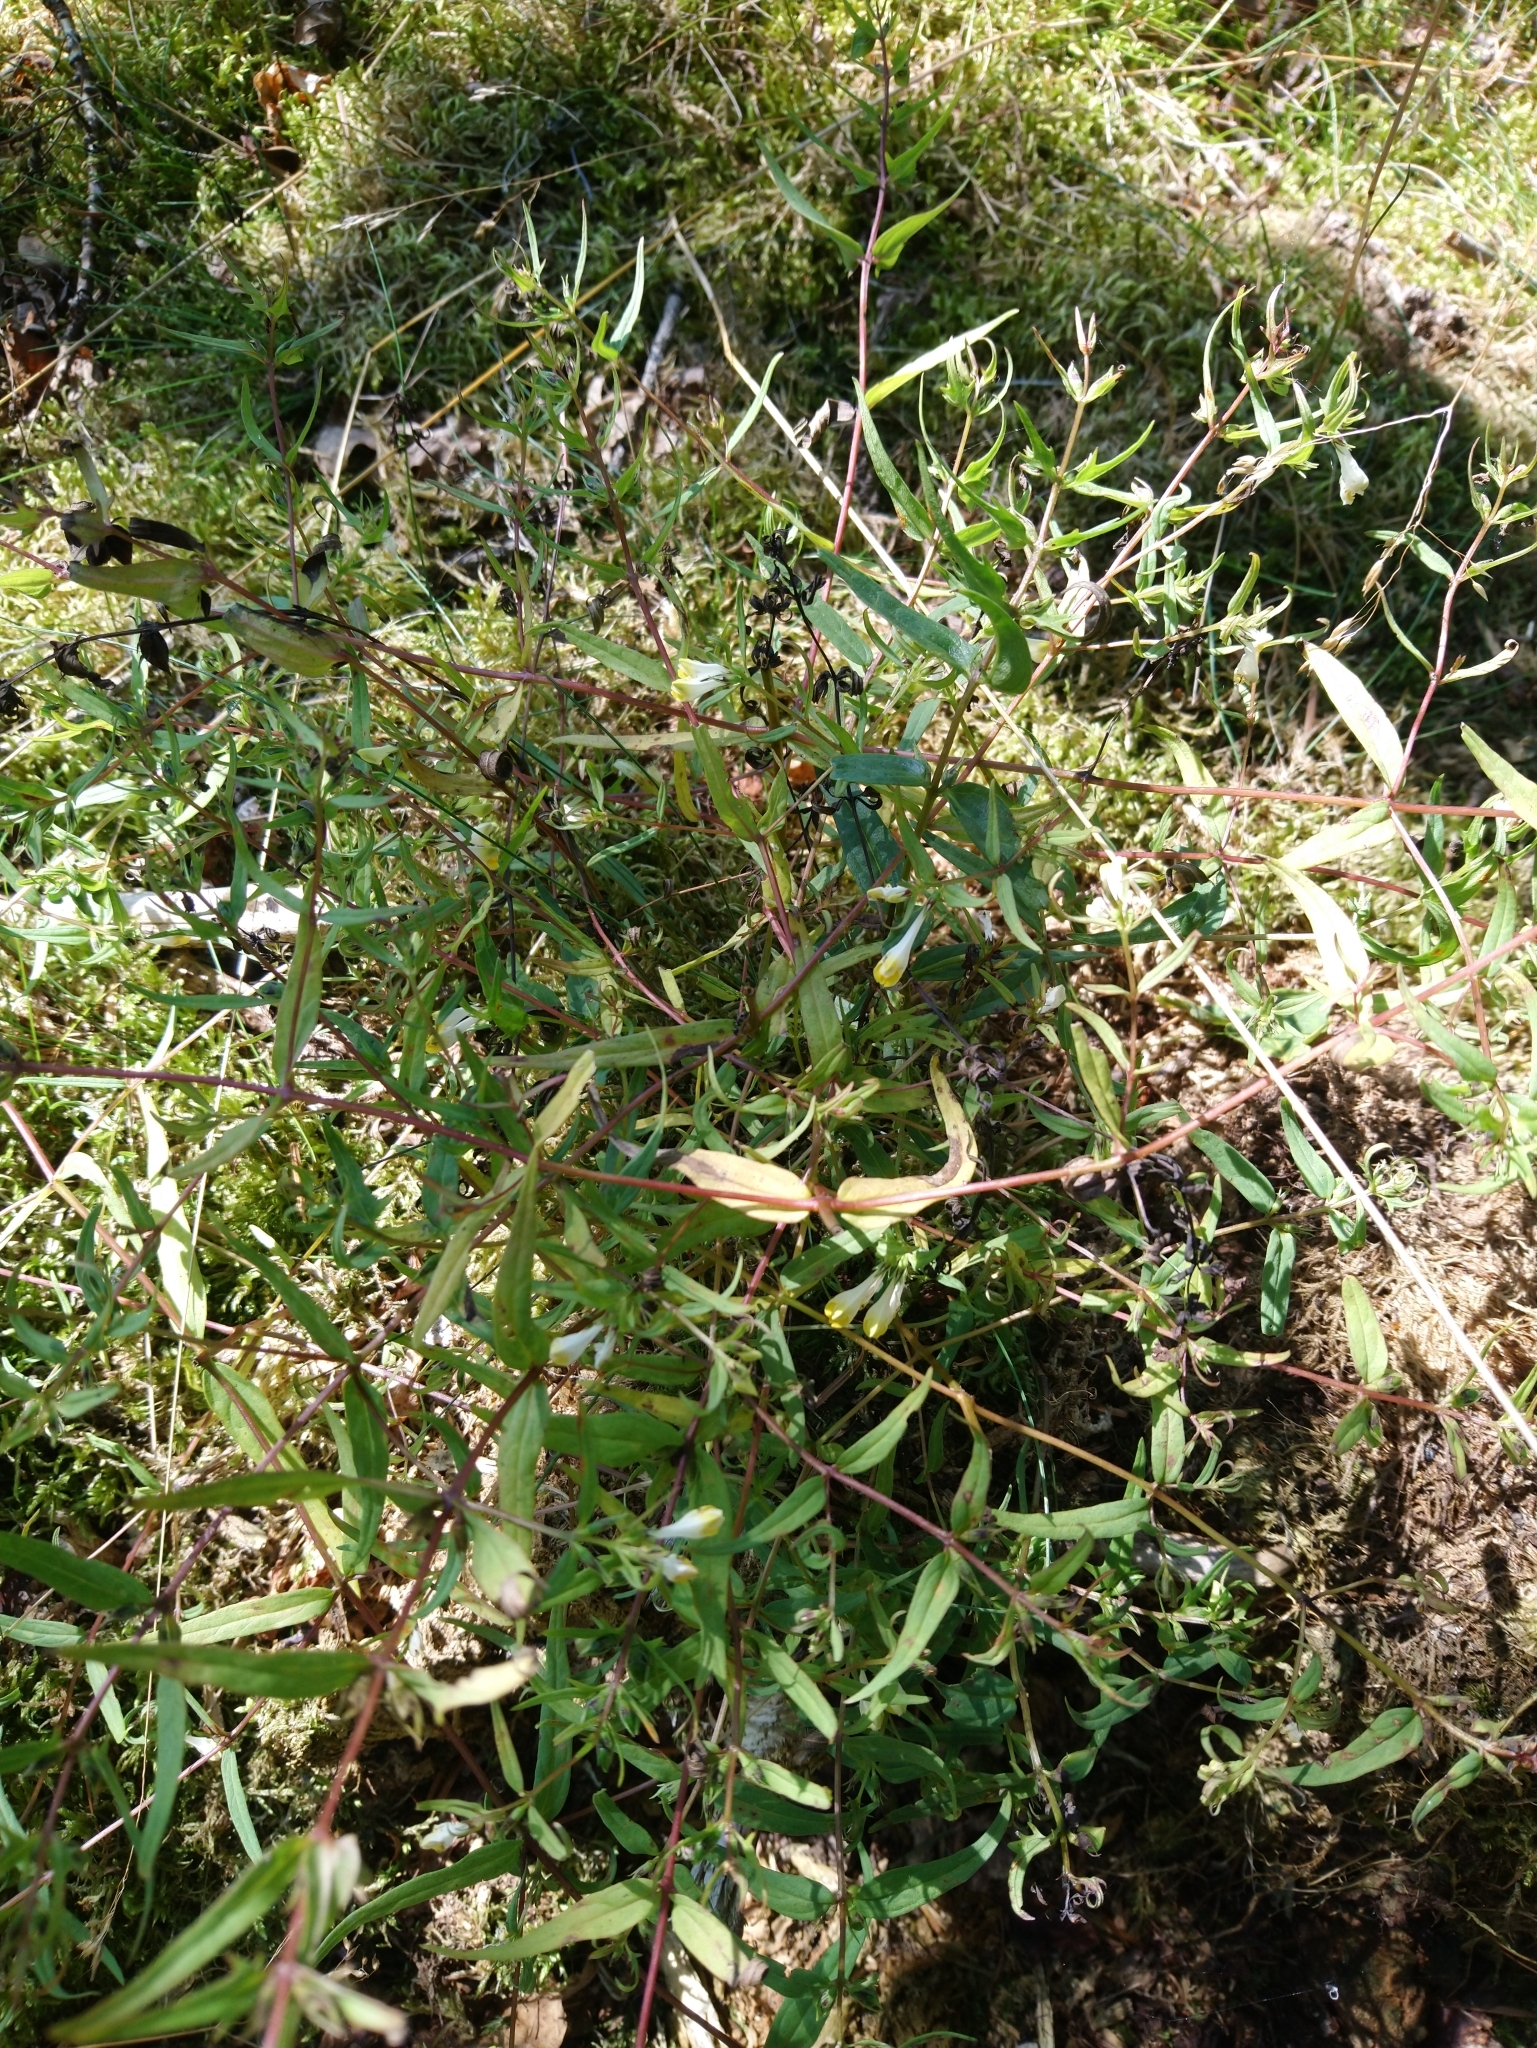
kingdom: Plantae
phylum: Tracheophyta
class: Magnoliopsida
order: Lamiales
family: Orobanchaceae
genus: Melampyrum
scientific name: Melampyrum pratense
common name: Common cow-wheat
